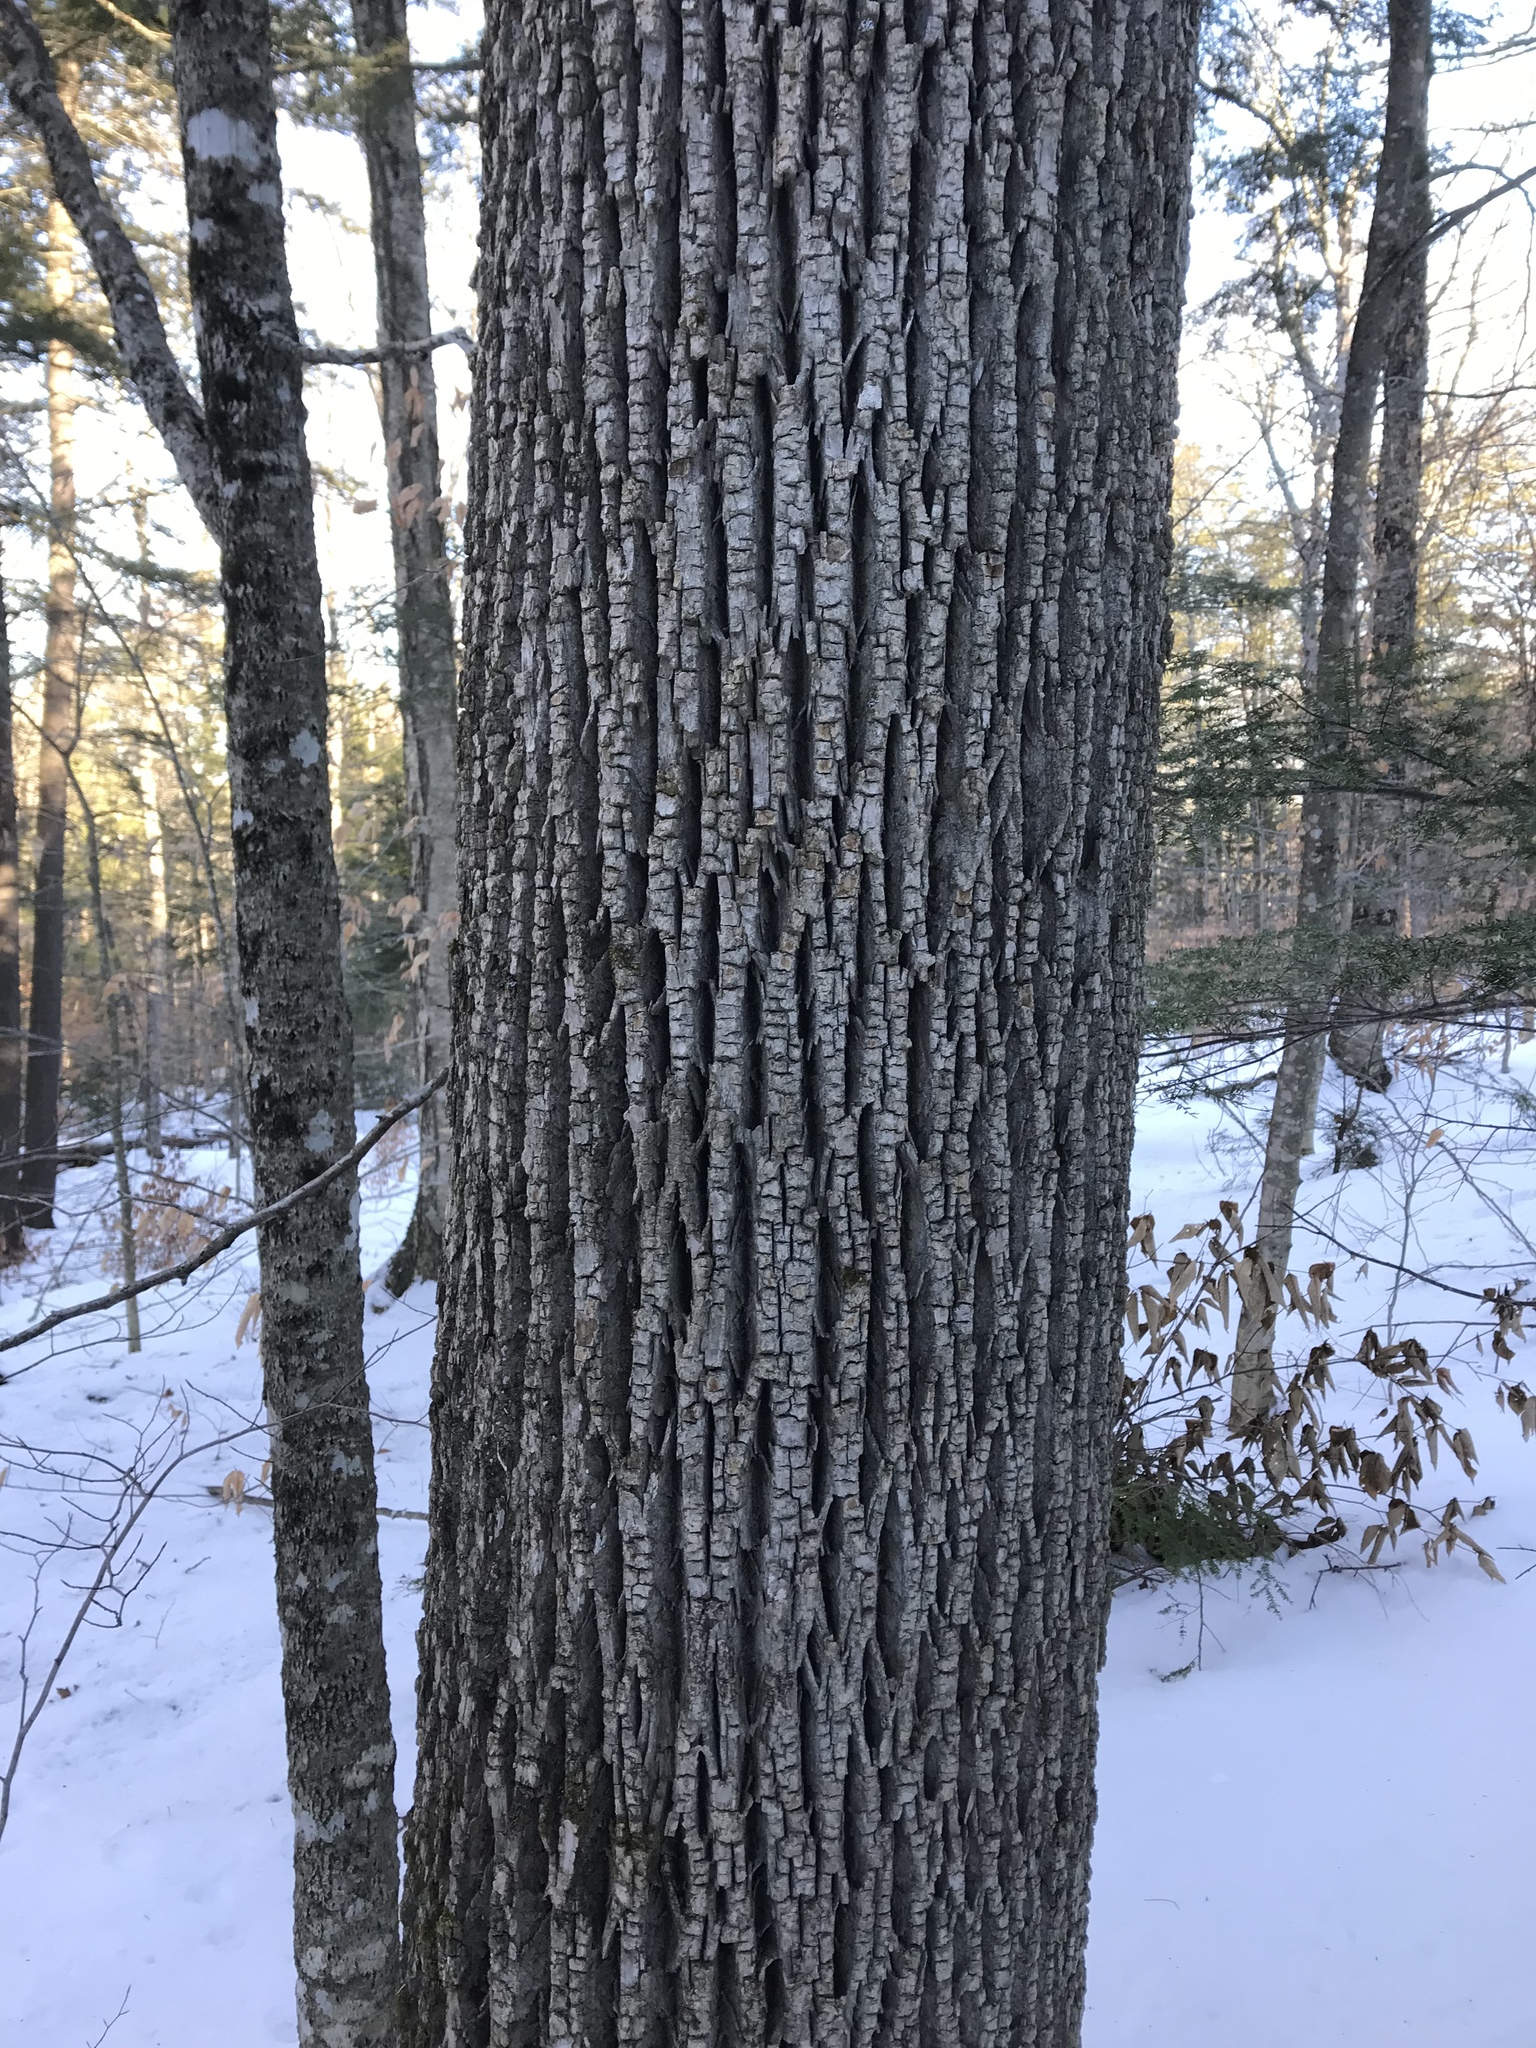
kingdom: Plantae
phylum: Tracheophyta
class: Magnoliopsida
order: Lamiales
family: Oleaceae
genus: Fraxinus
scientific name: Fraxinus americana
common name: White ash
